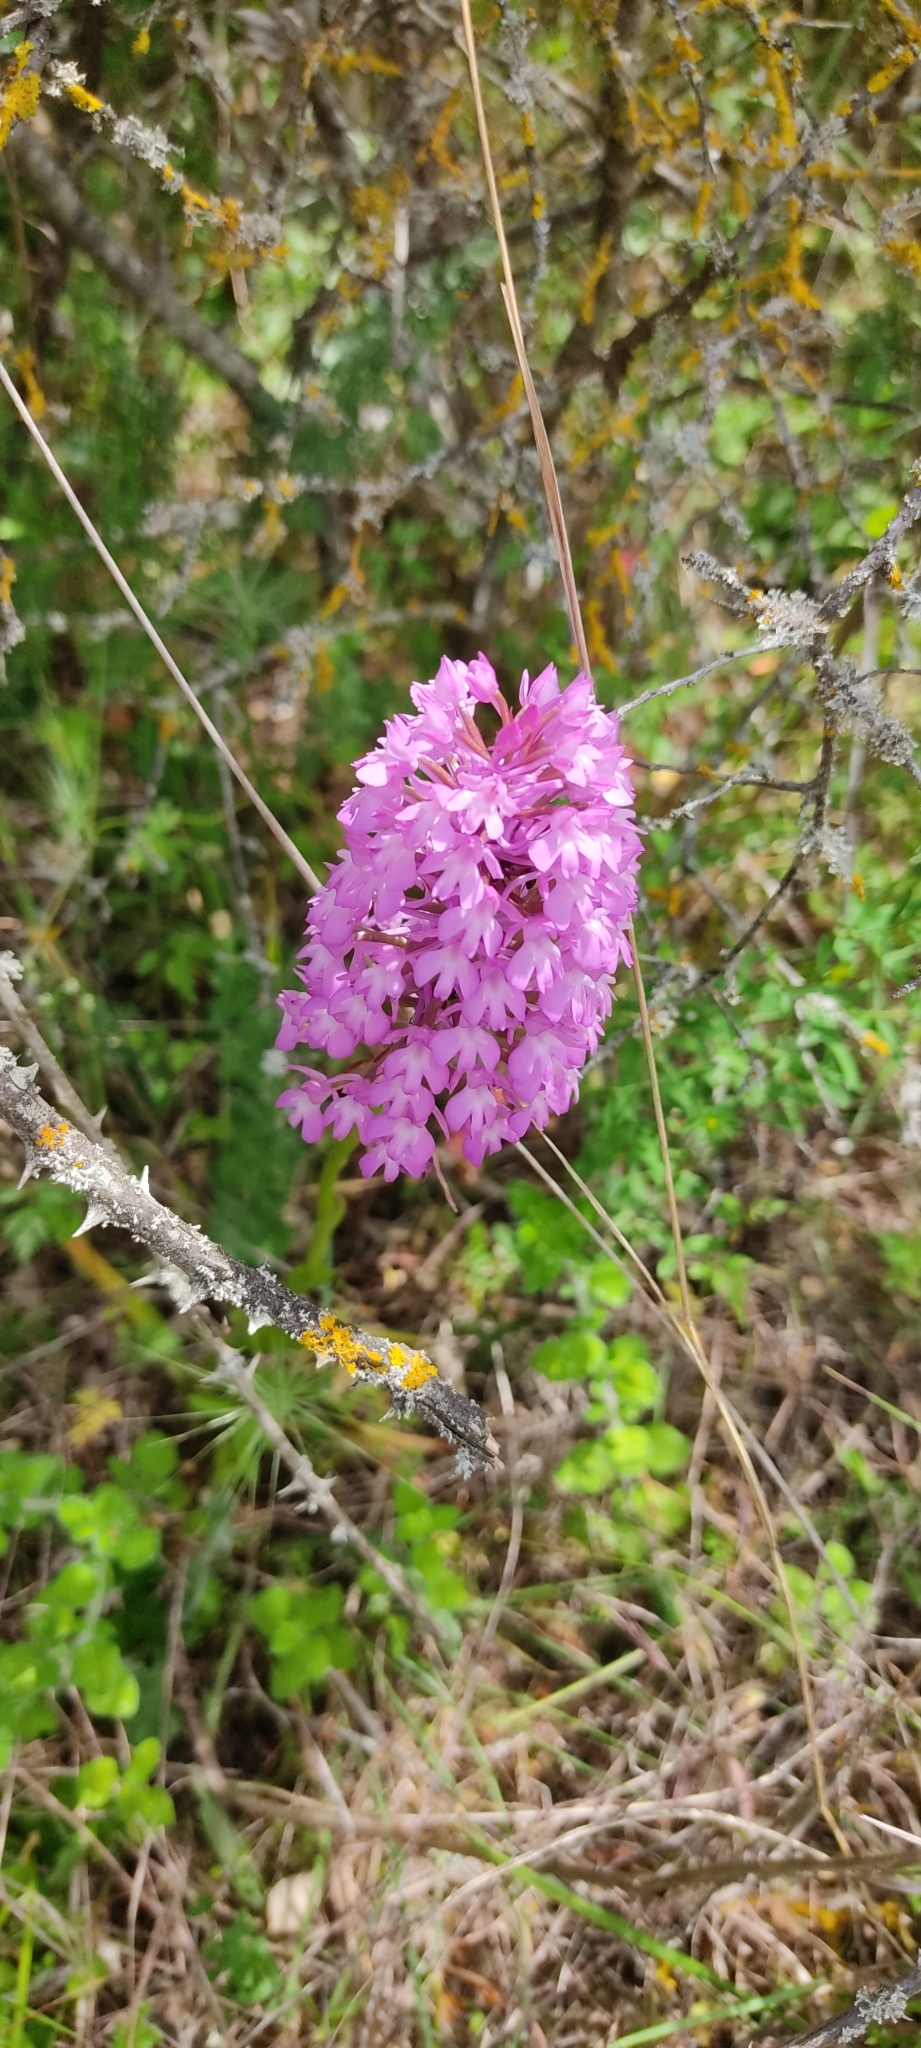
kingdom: Plantae
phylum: Tracheophyta
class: Liliopsida
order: Asparagales
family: Orchidaceae
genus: Anacamptis
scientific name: Anacamptis pyramidalis
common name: Pyramidal orchid
